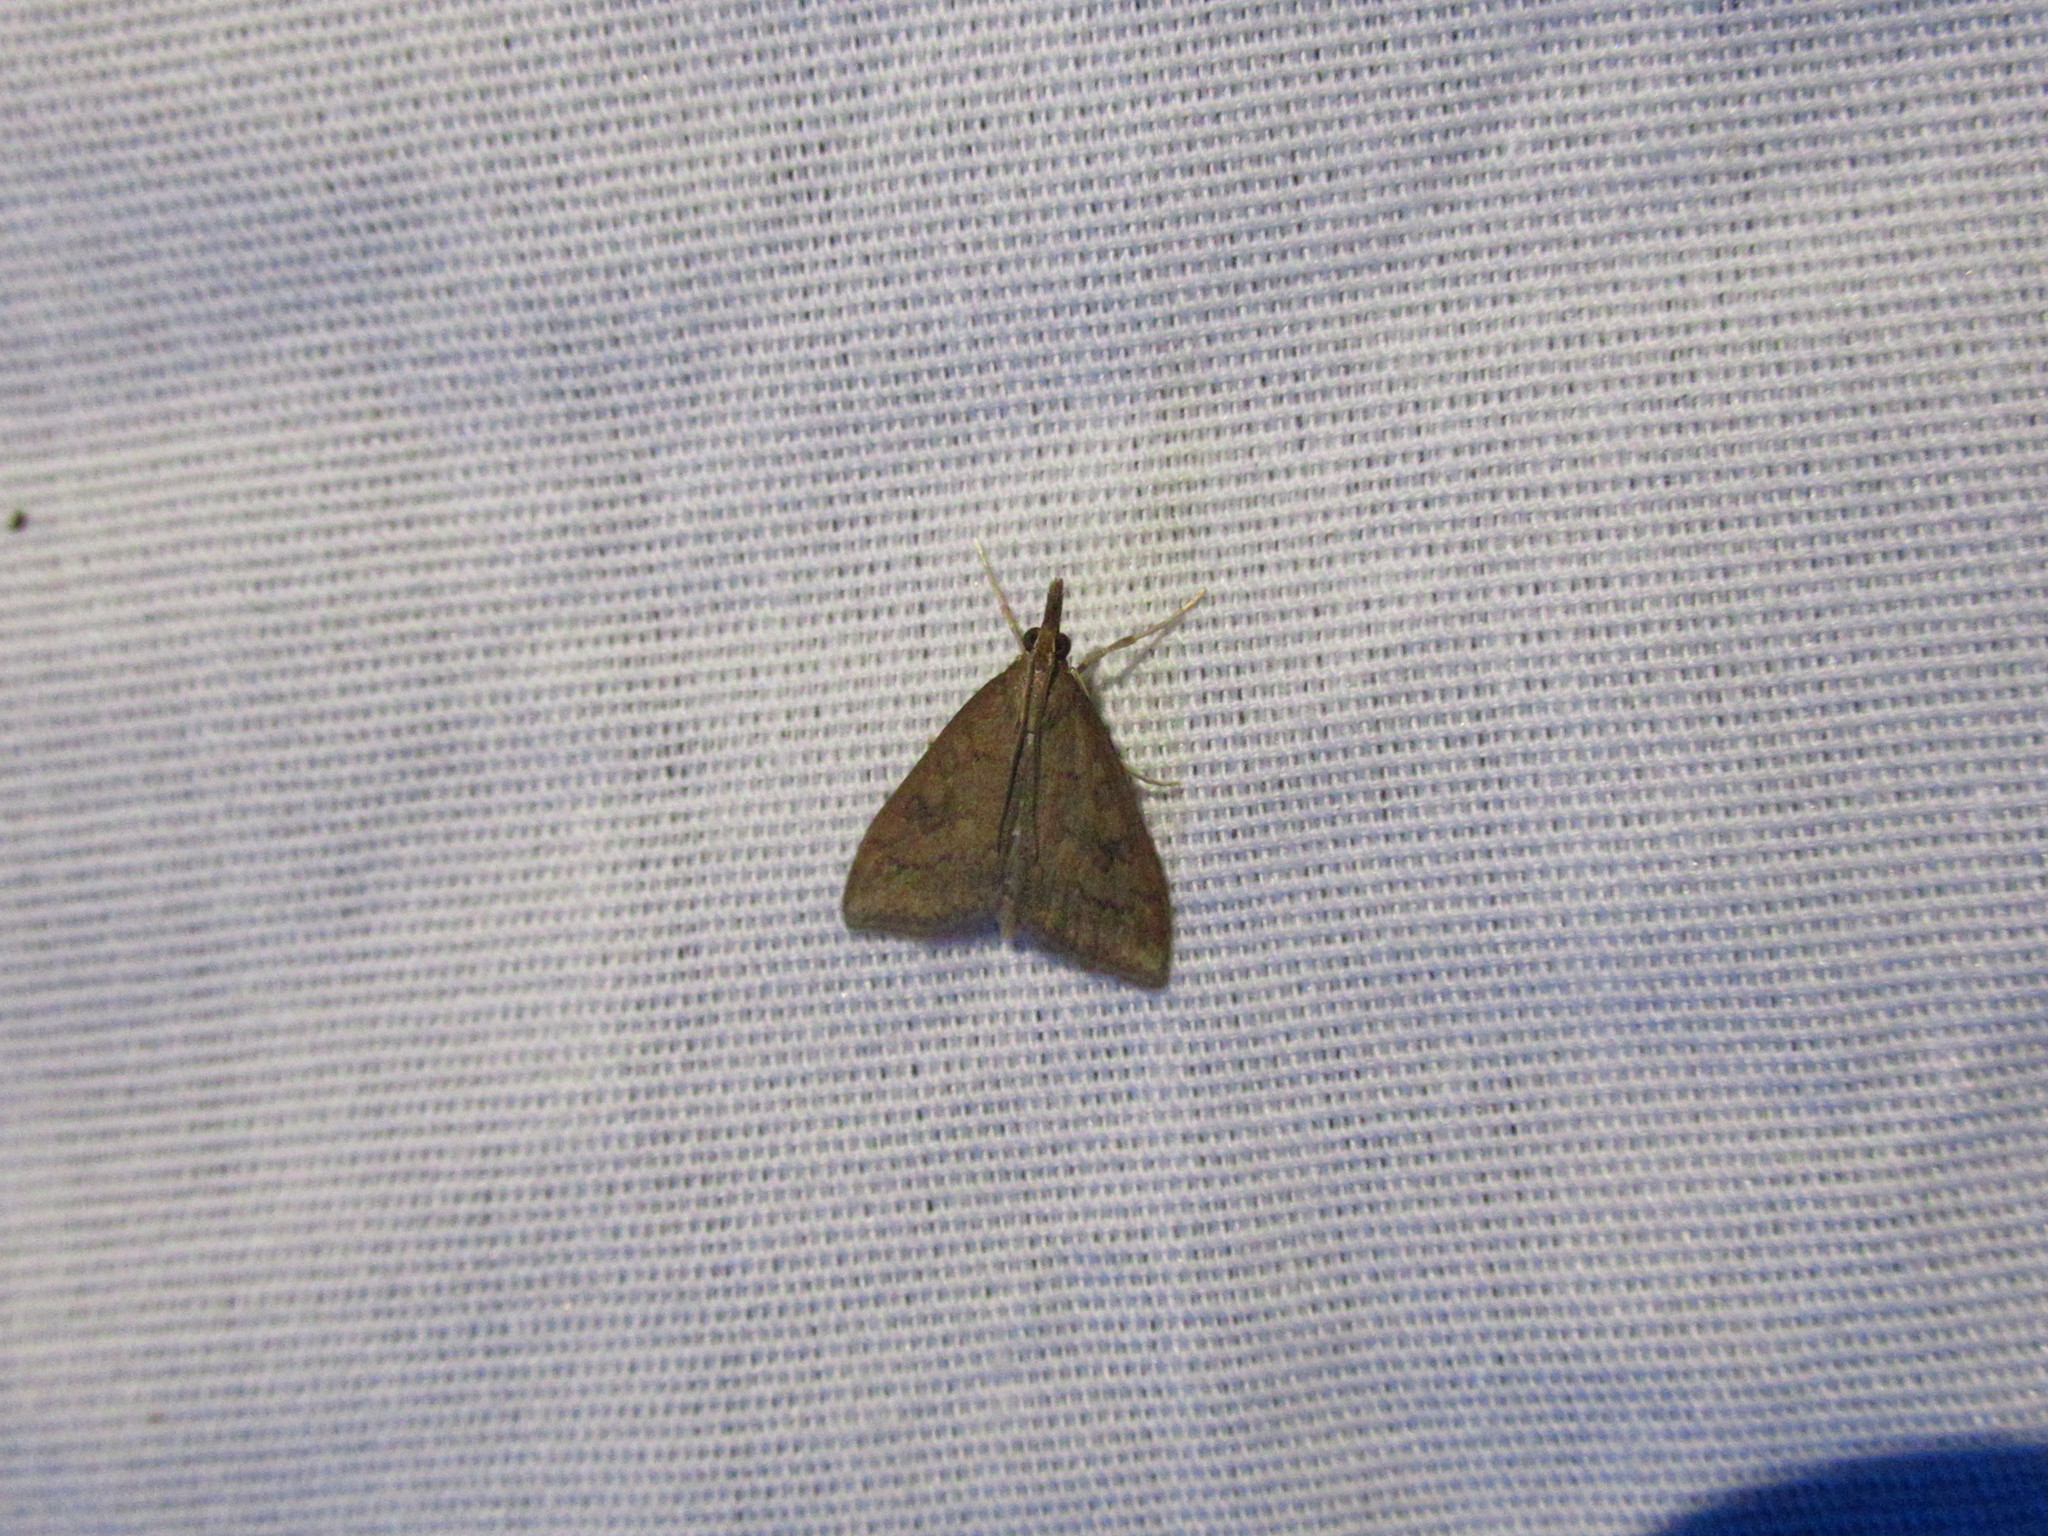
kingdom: Animalia
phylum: Arthropoda
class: Insecta
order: Lepidoptera
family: Crambidae
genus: Udea
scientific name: Udea rubigalis
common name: Celery leaftier moth
